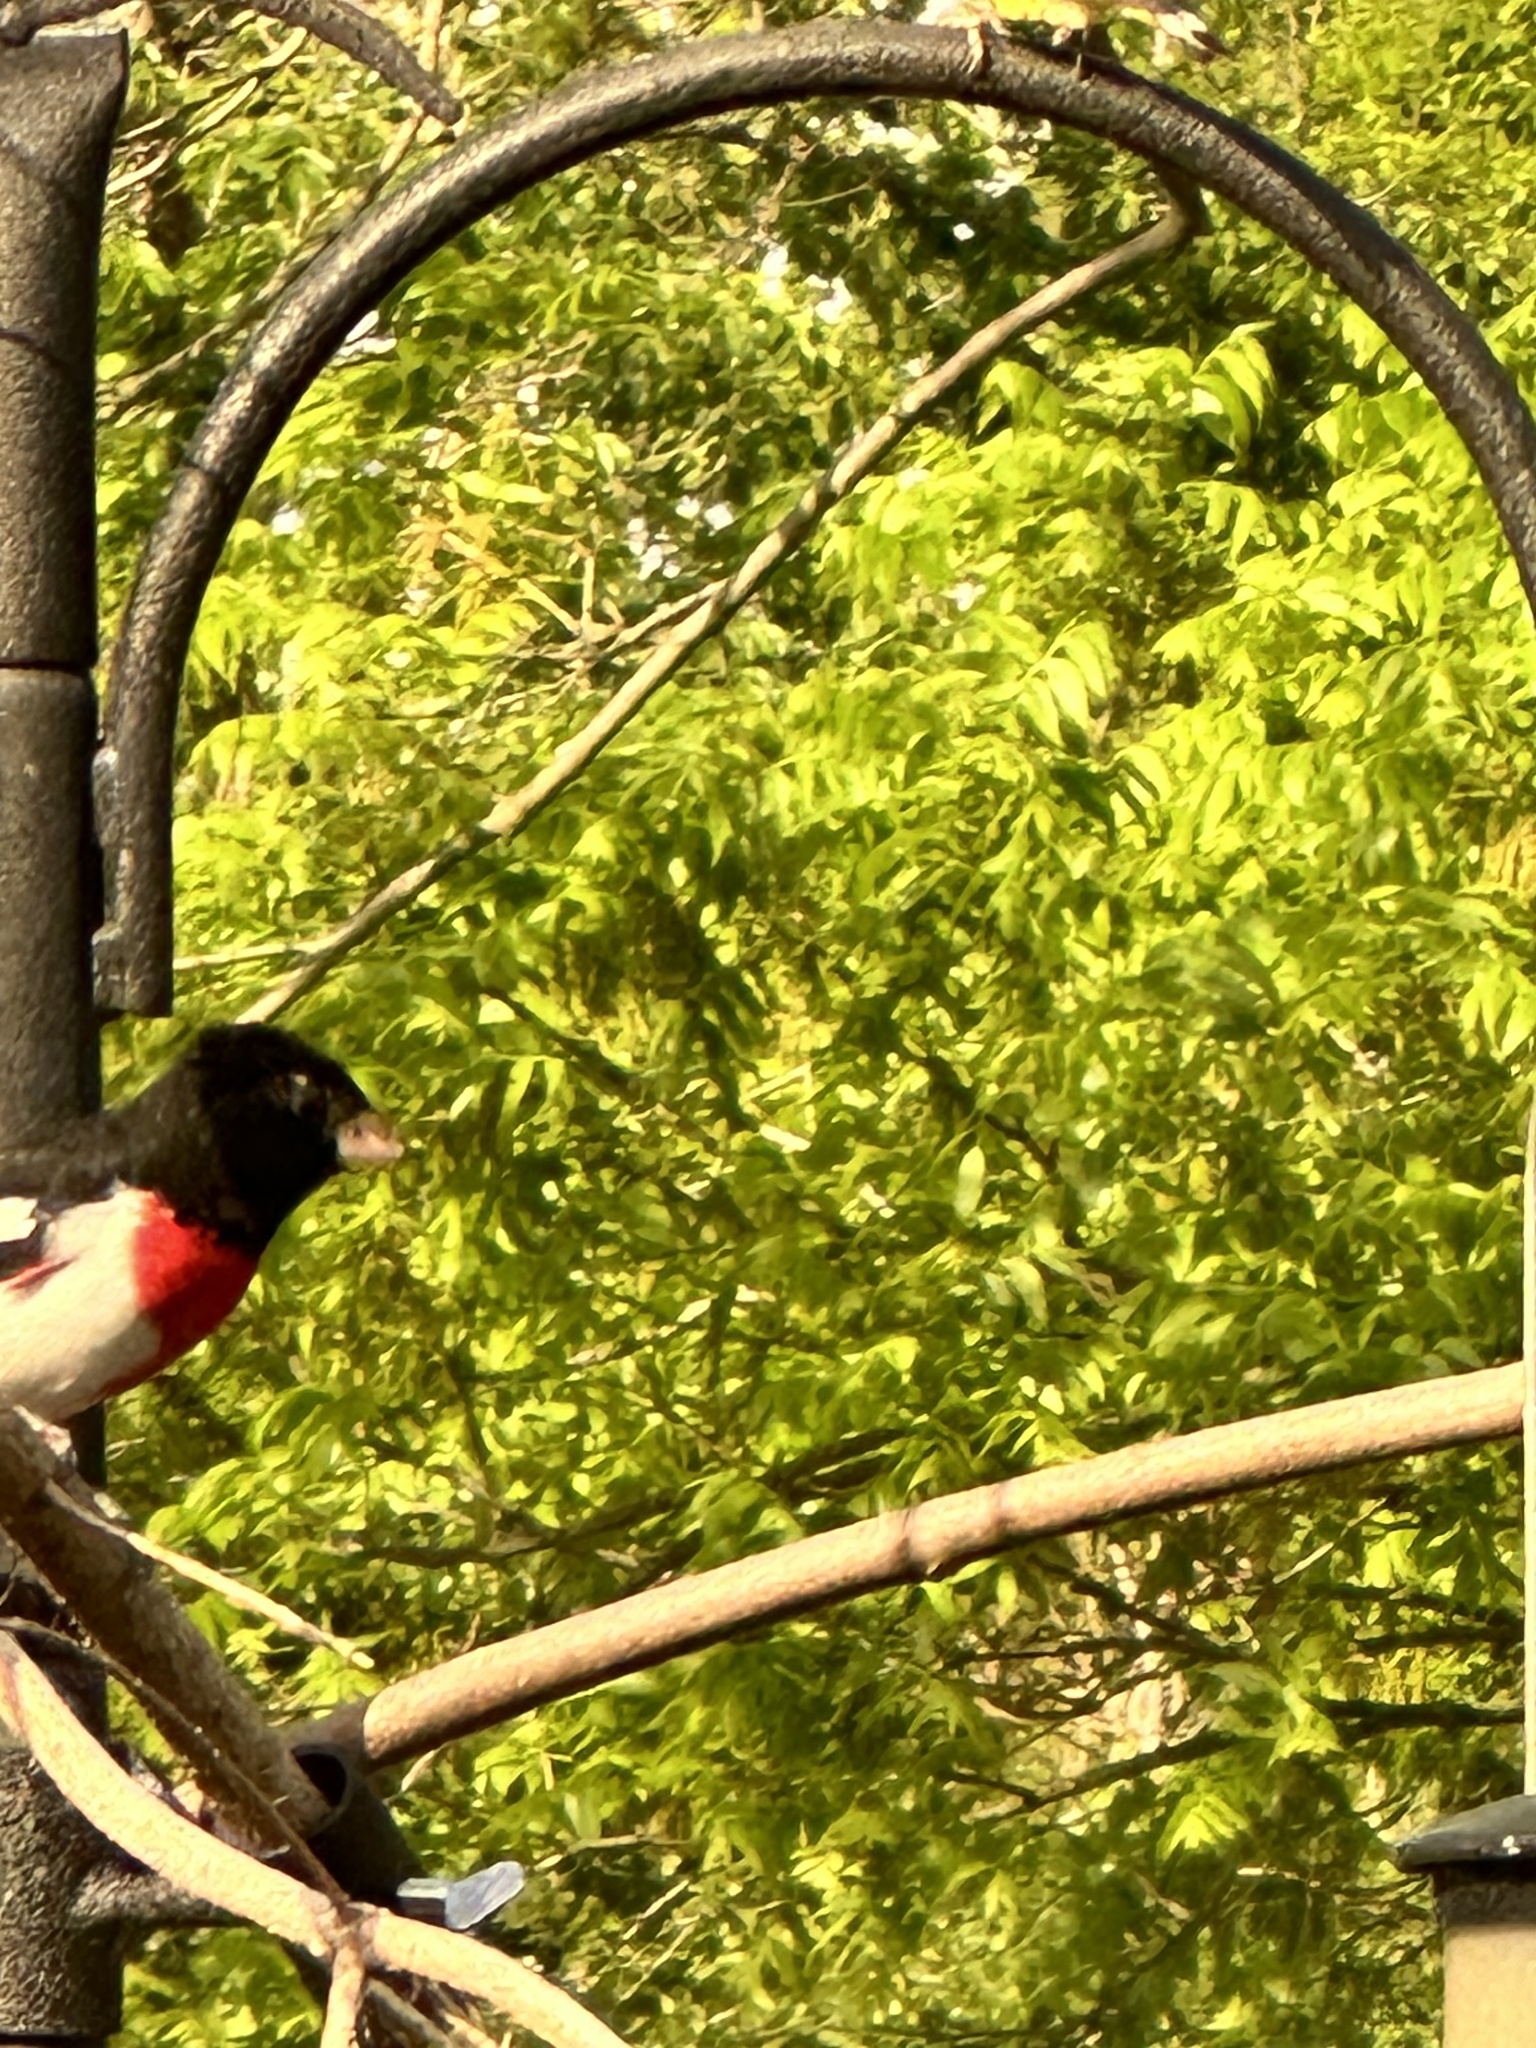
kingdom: Animalia
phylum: Chordata
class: Aves
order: Passeriformes
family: Cardinalidae
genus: Pheucticus
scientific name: Pheucticus ludovicianus
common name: Rose-breasted grosbeak
